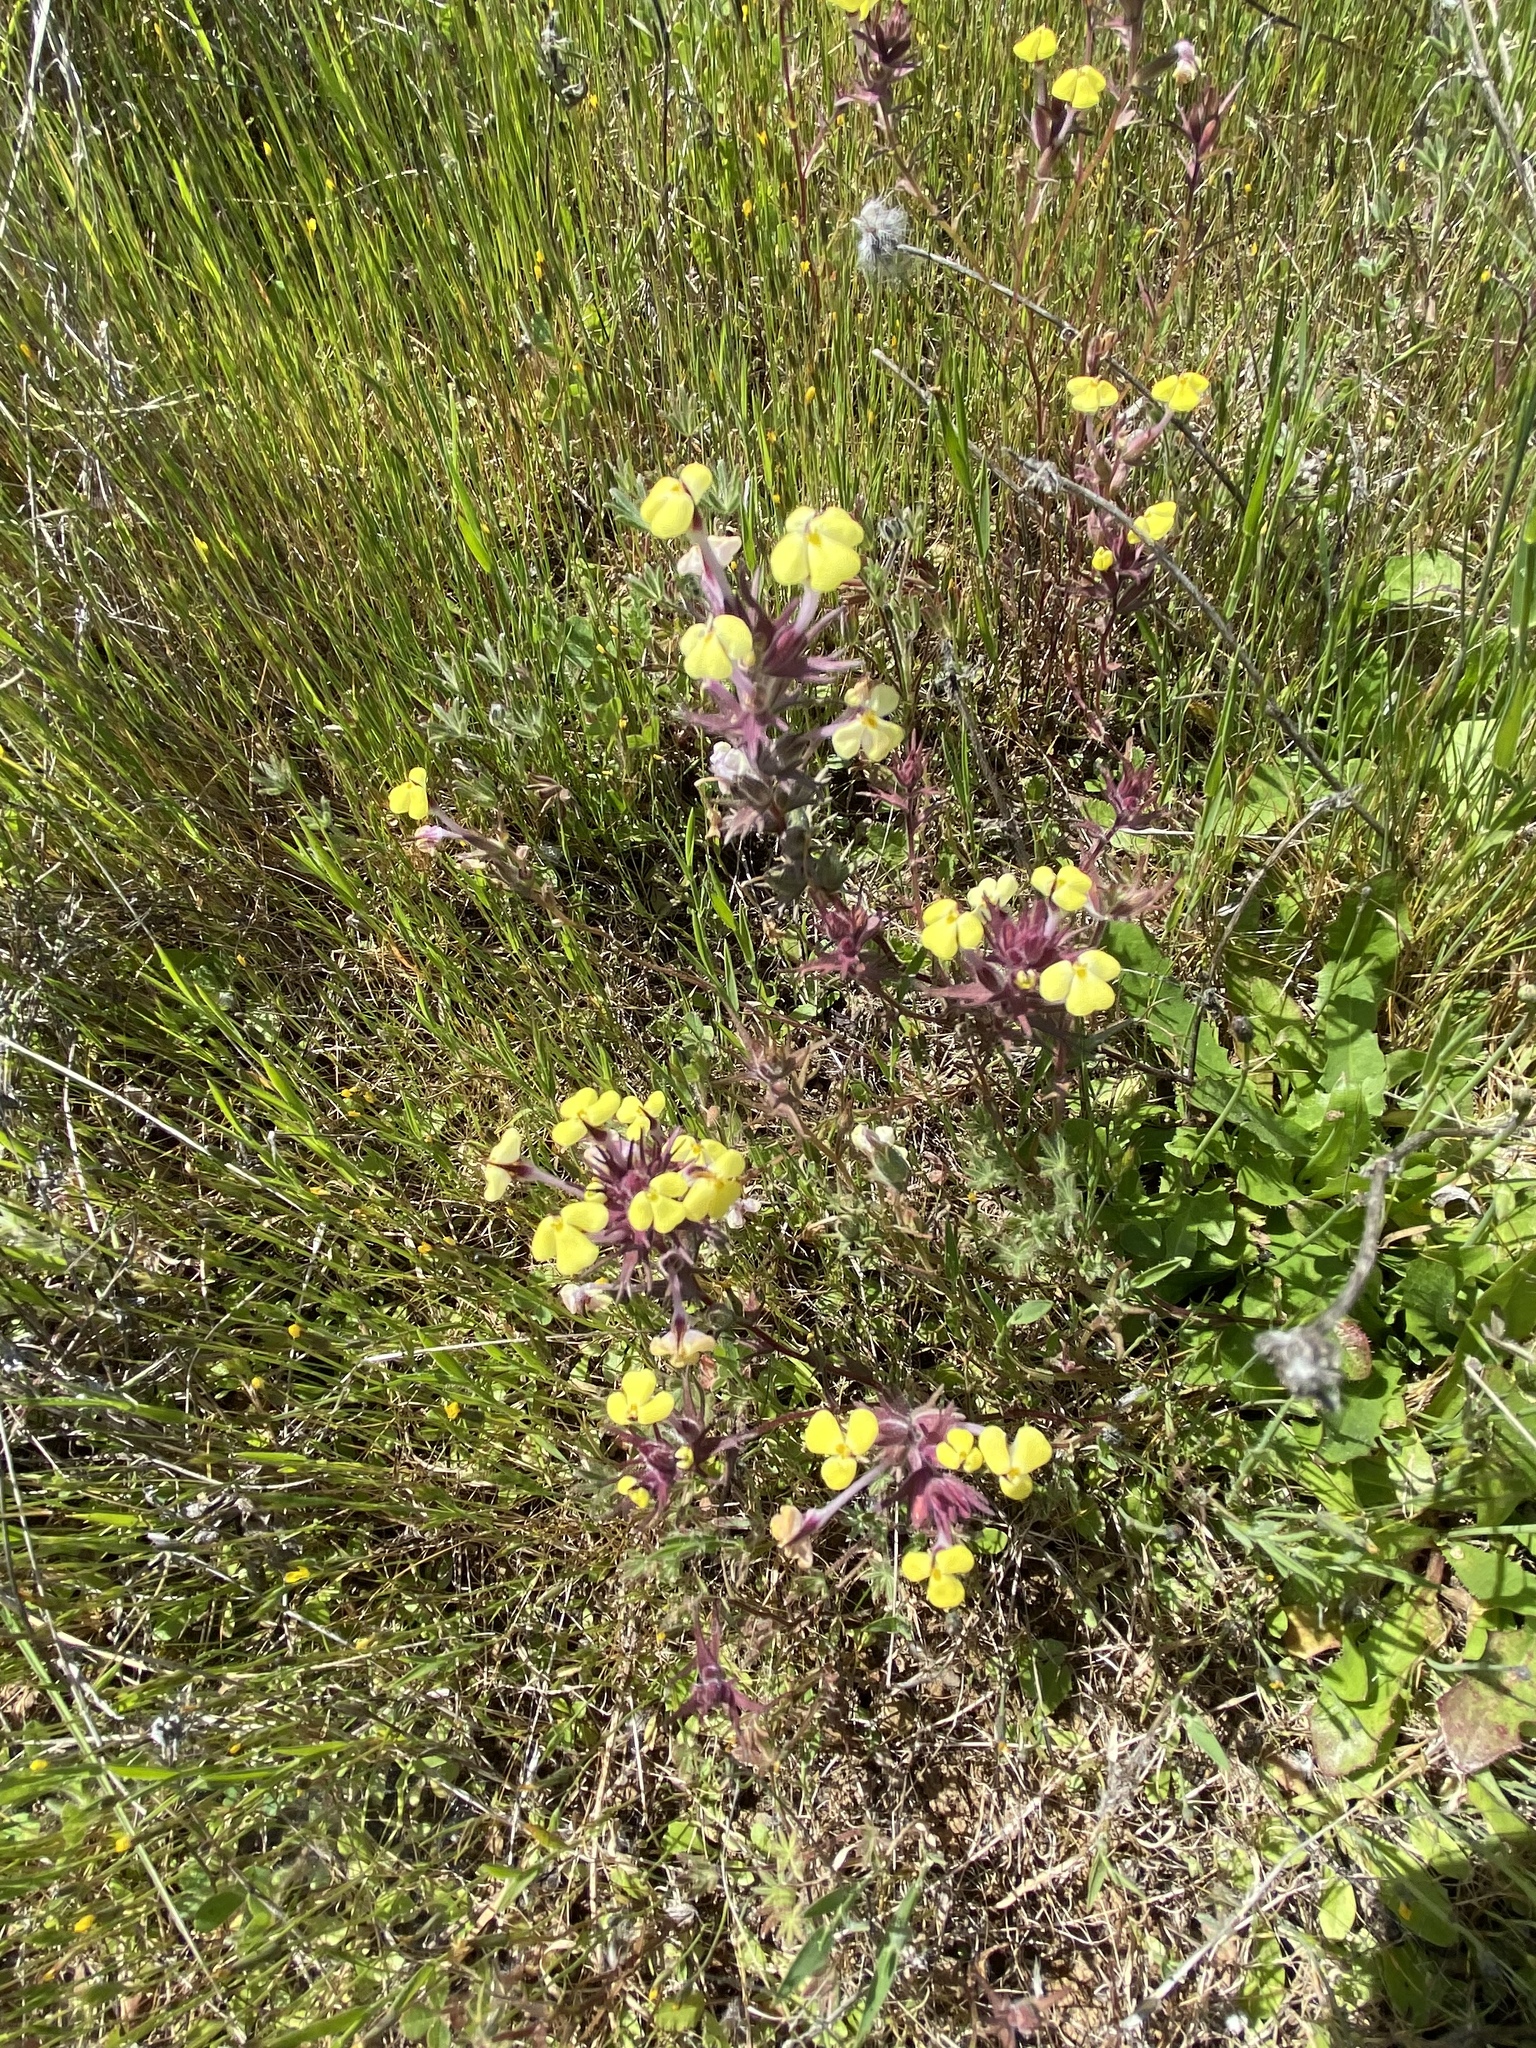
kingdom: Plantae
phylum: Tracheophyta
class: Magnoliopsida
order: Lamiales
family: Orobanchaceae
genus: Triphysaria
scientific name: Triphysaria eriantha
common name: Johnny-tuck
